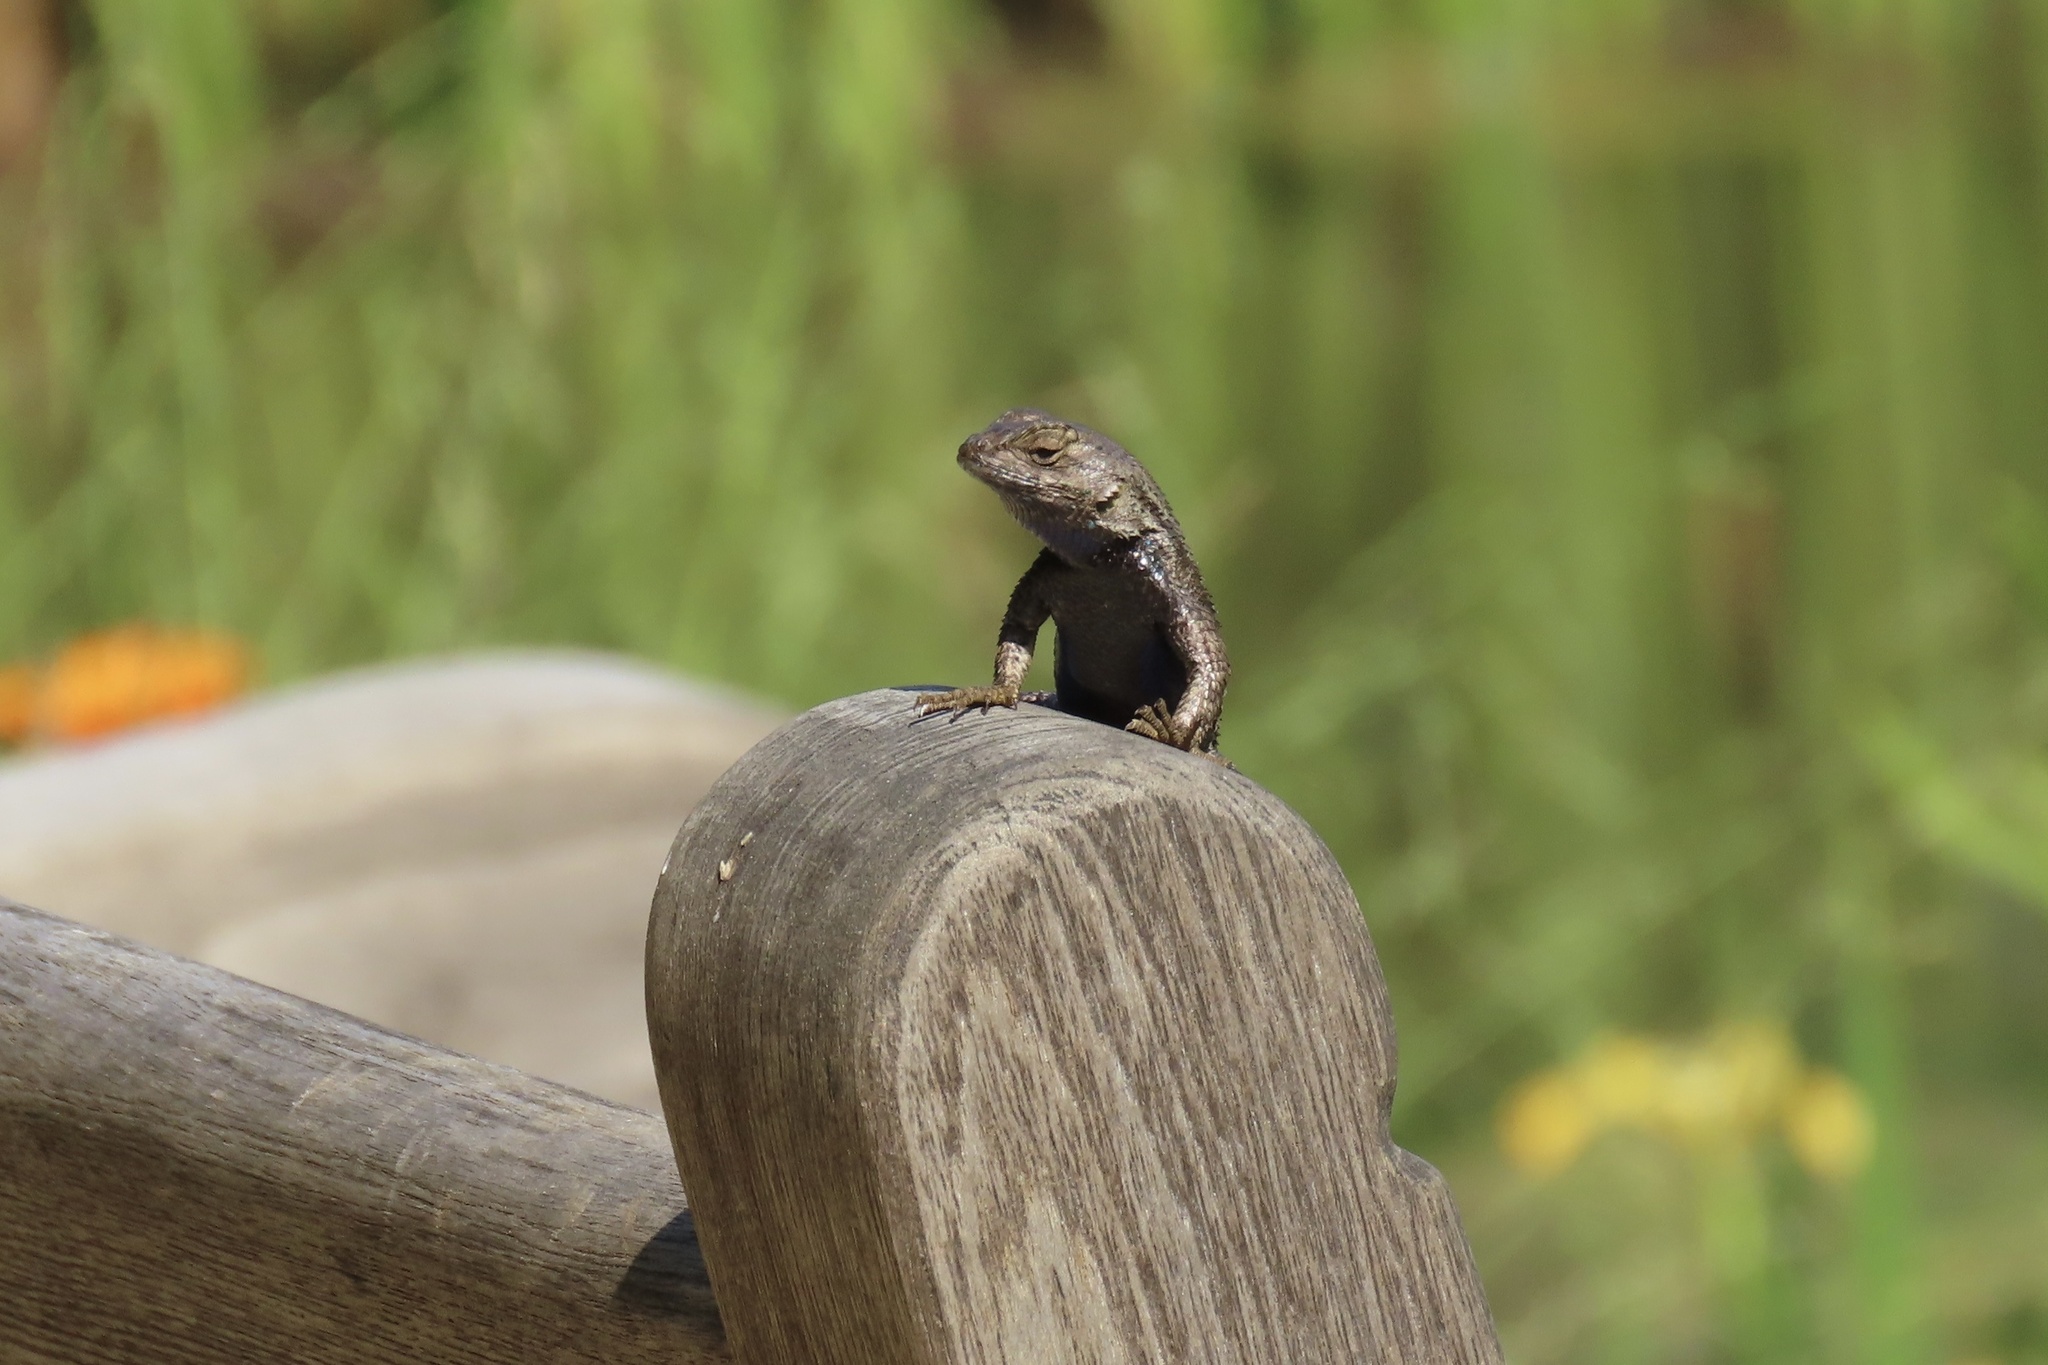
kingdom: Animalia
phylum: Chordata
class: Squamata
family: Phrynosomatidae
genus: Sceloporus
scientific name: Sceloporus occidentalis
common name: Western fence lizard
